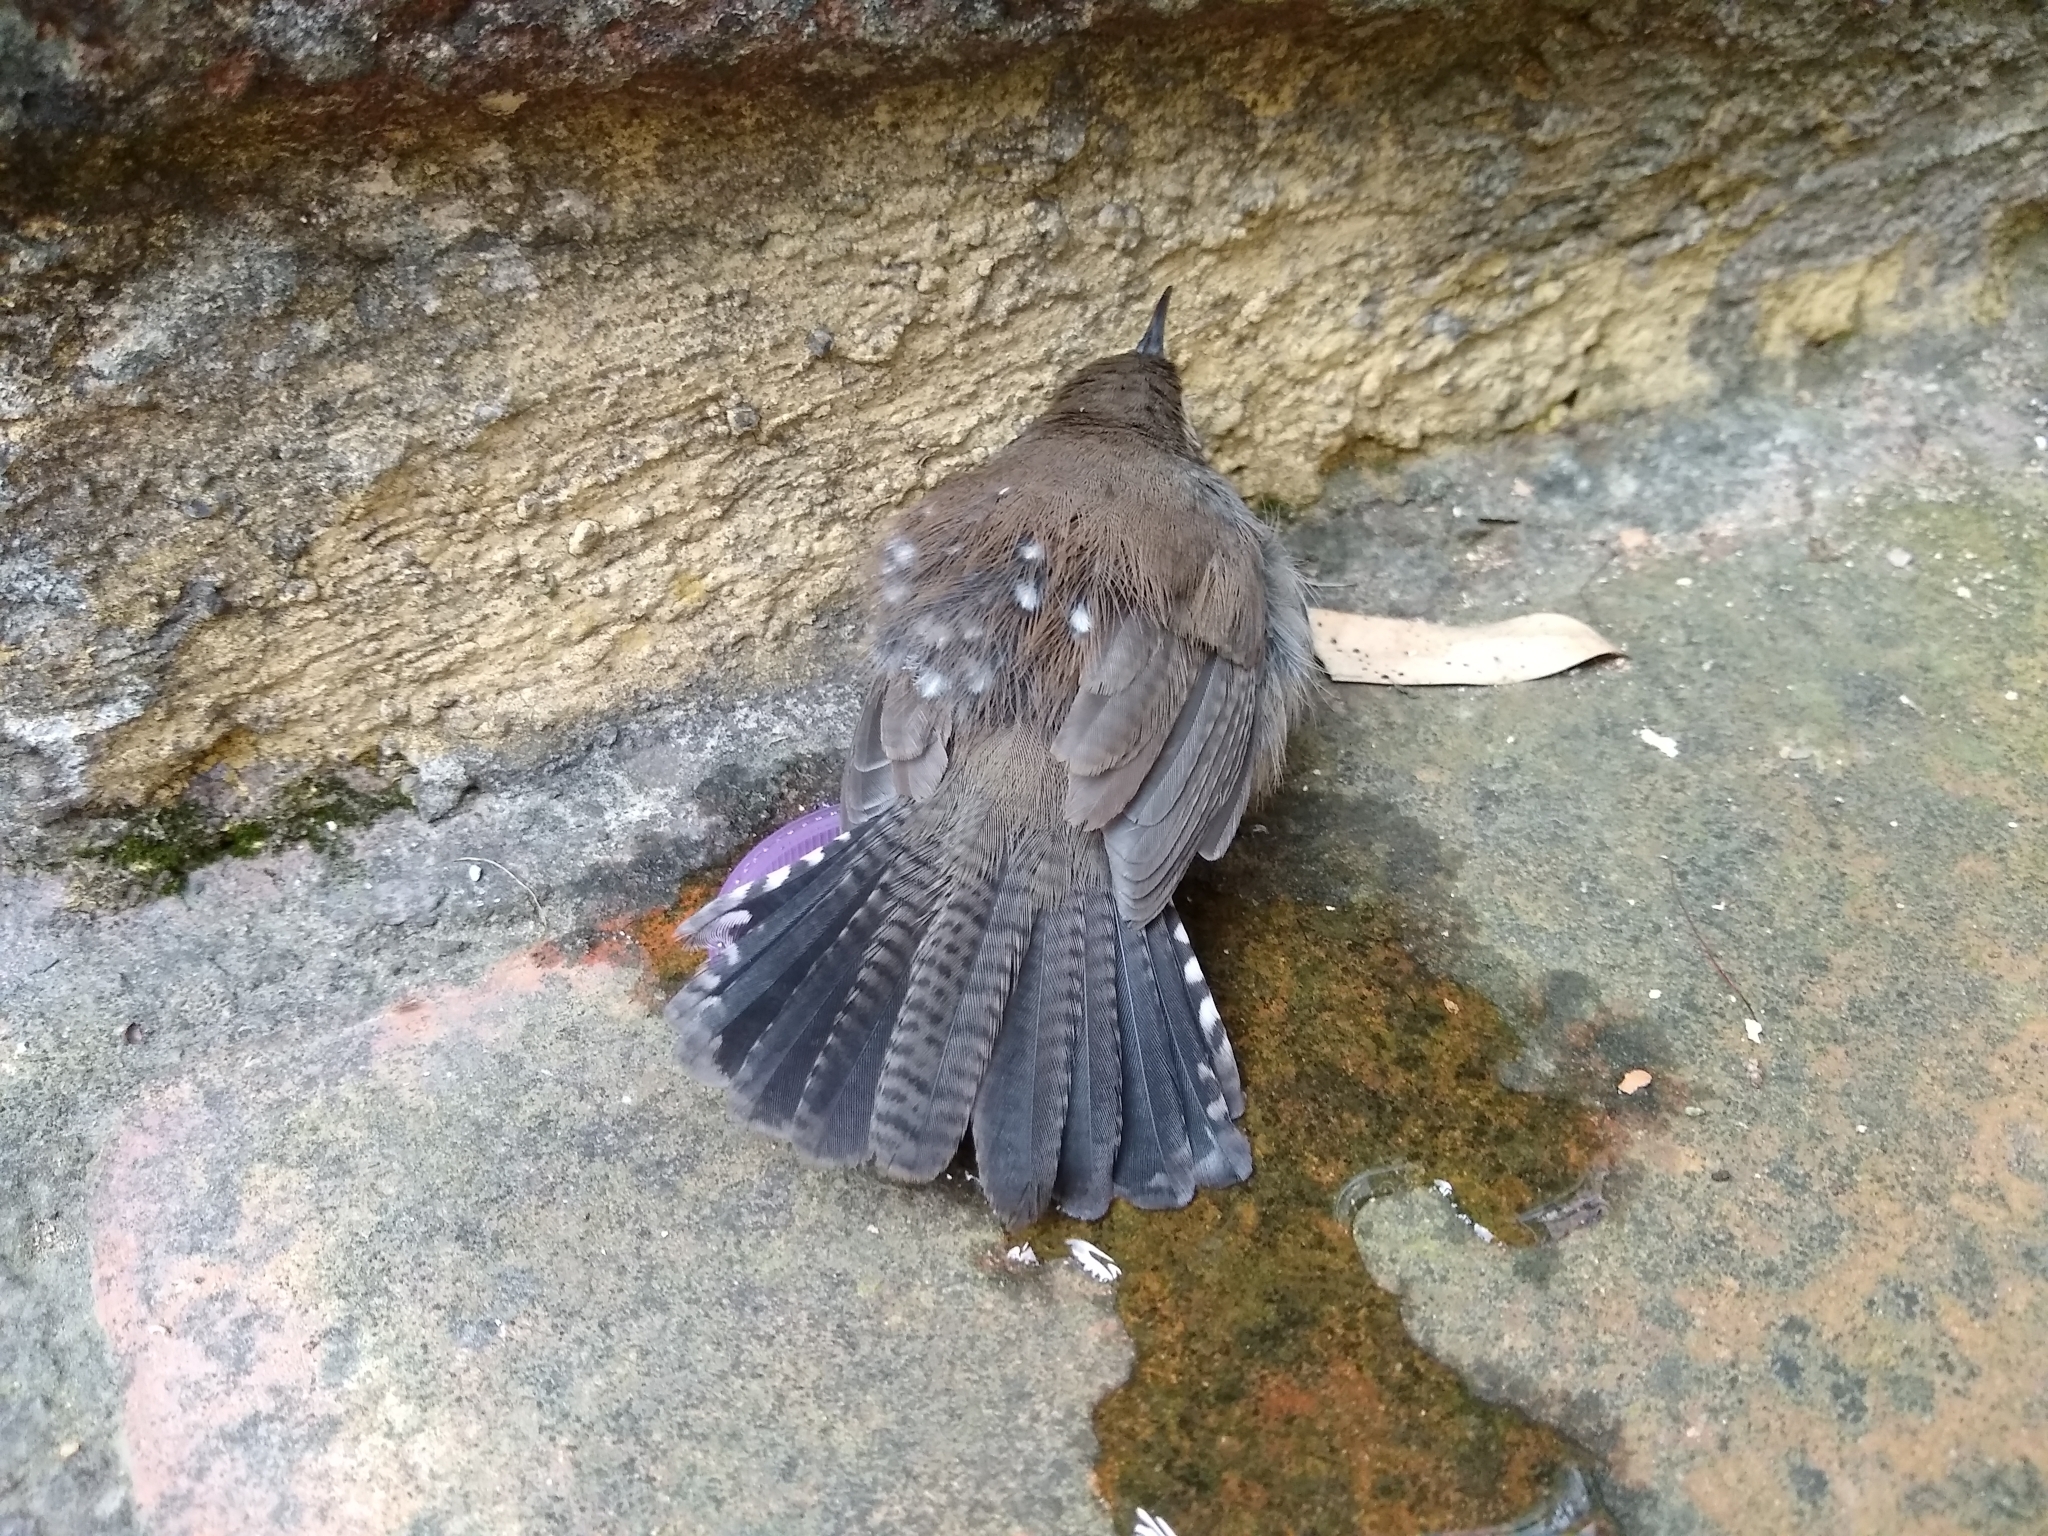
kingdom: Animalia
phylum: Chordata
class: Aves
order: Passeriformes
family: Troglodytidae
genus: Thryomanes
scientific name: Thryomanes bewickii
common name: Bewick's wren
